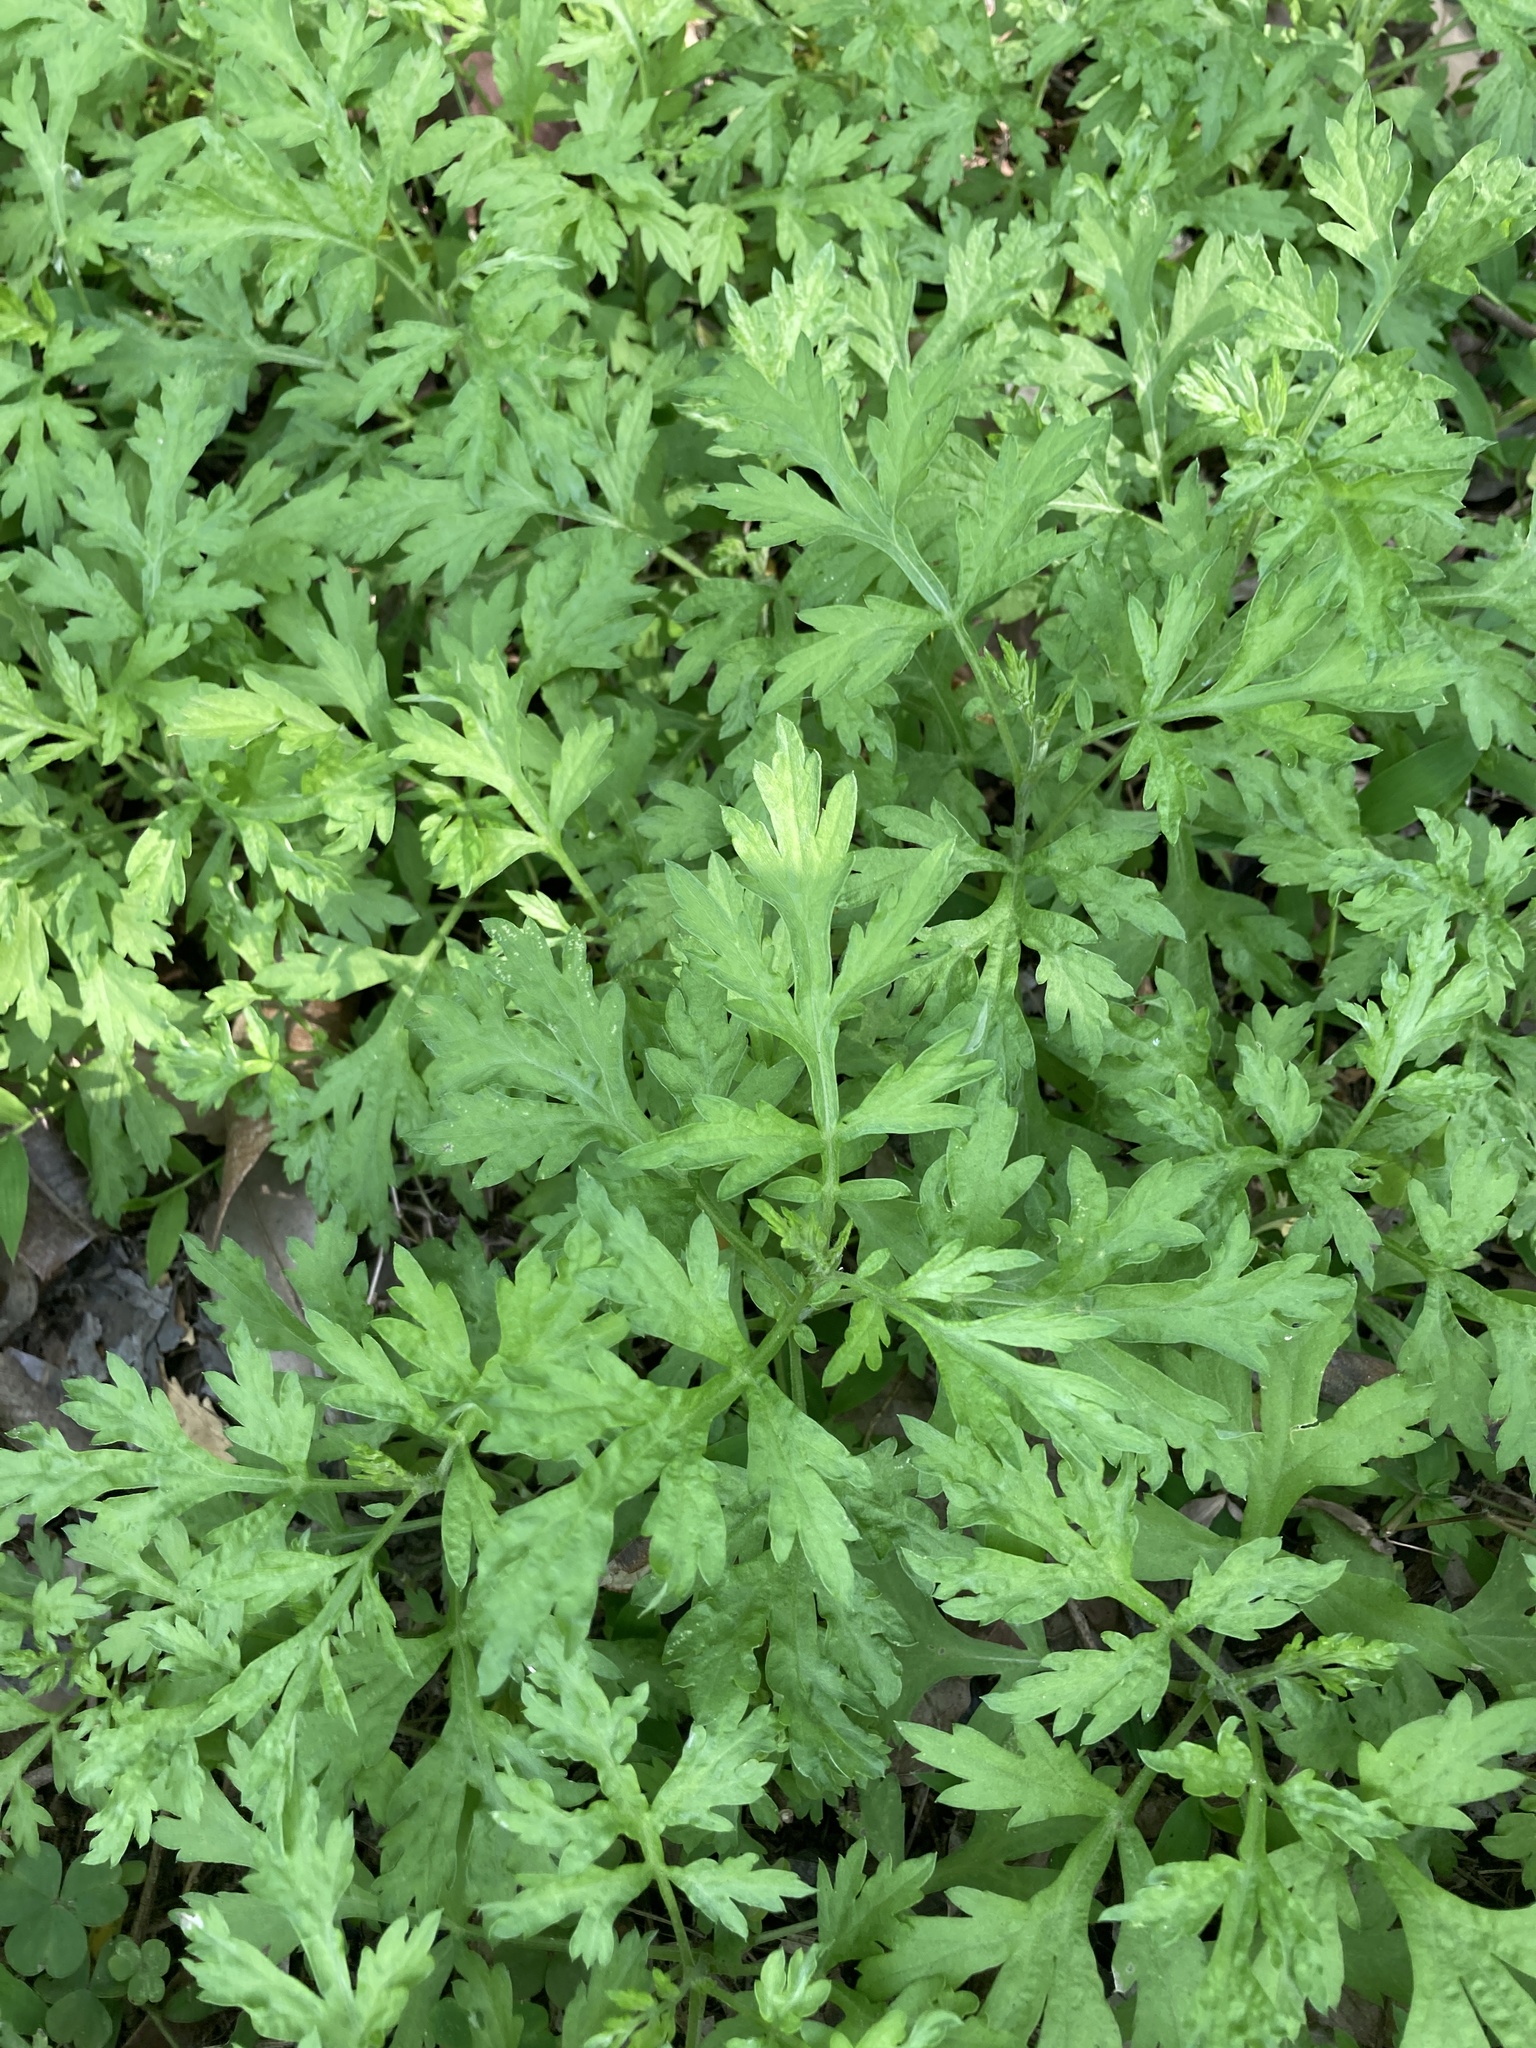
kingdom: Plantae
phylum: Tracheophyta
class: Magnoliopsida
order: Asterales
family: Asteraceae
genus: Artemisia
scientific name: Artemisia indica
